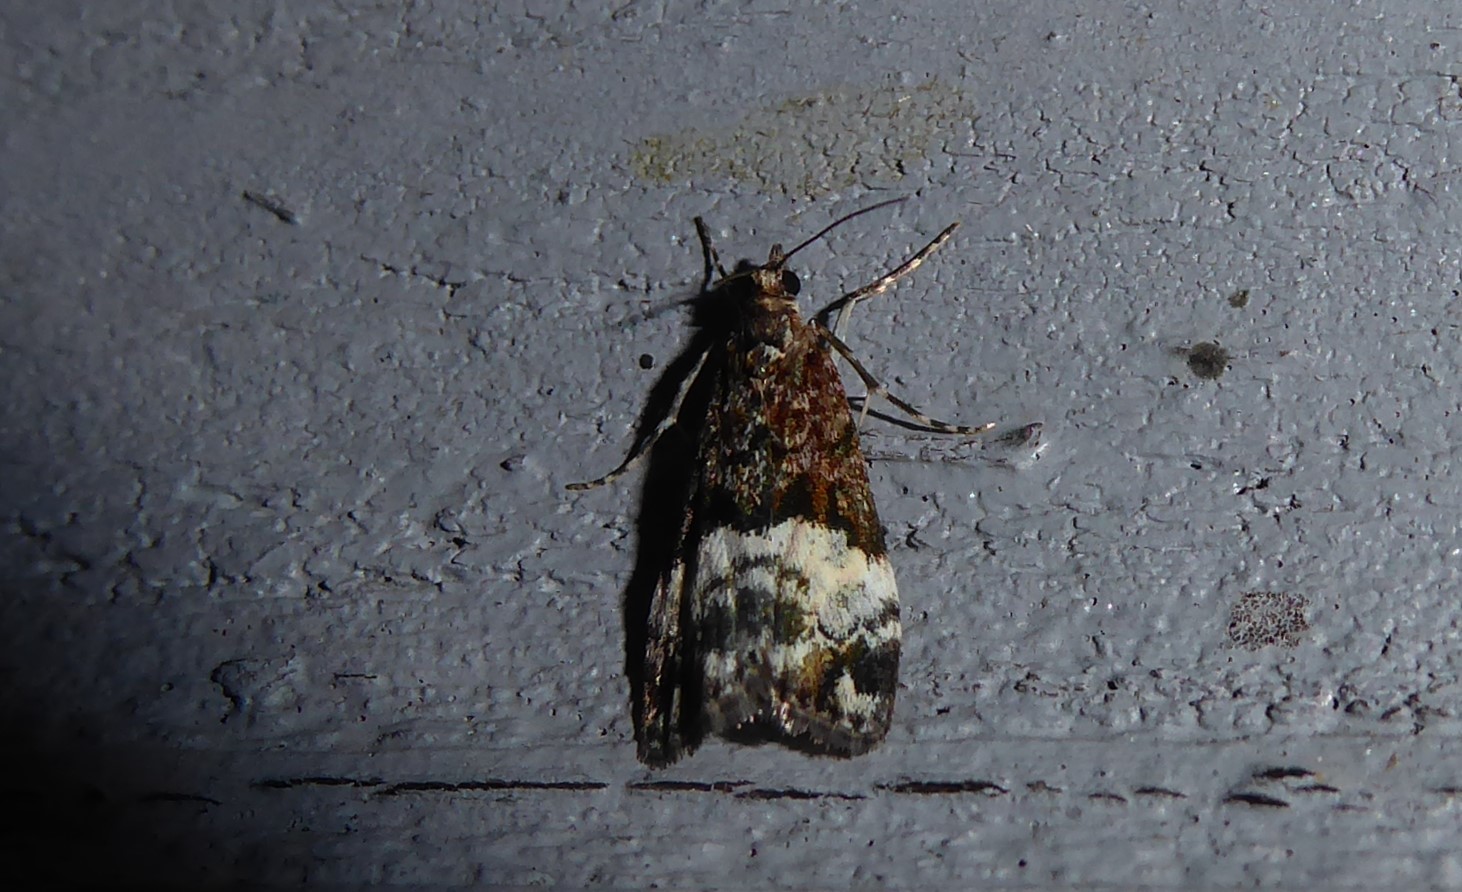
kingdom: Animalia
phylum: Arthropoda
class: Insecta
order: Lepidoptera
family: Crambidae
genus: Scoparia
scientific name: Scoparia minusculalis
